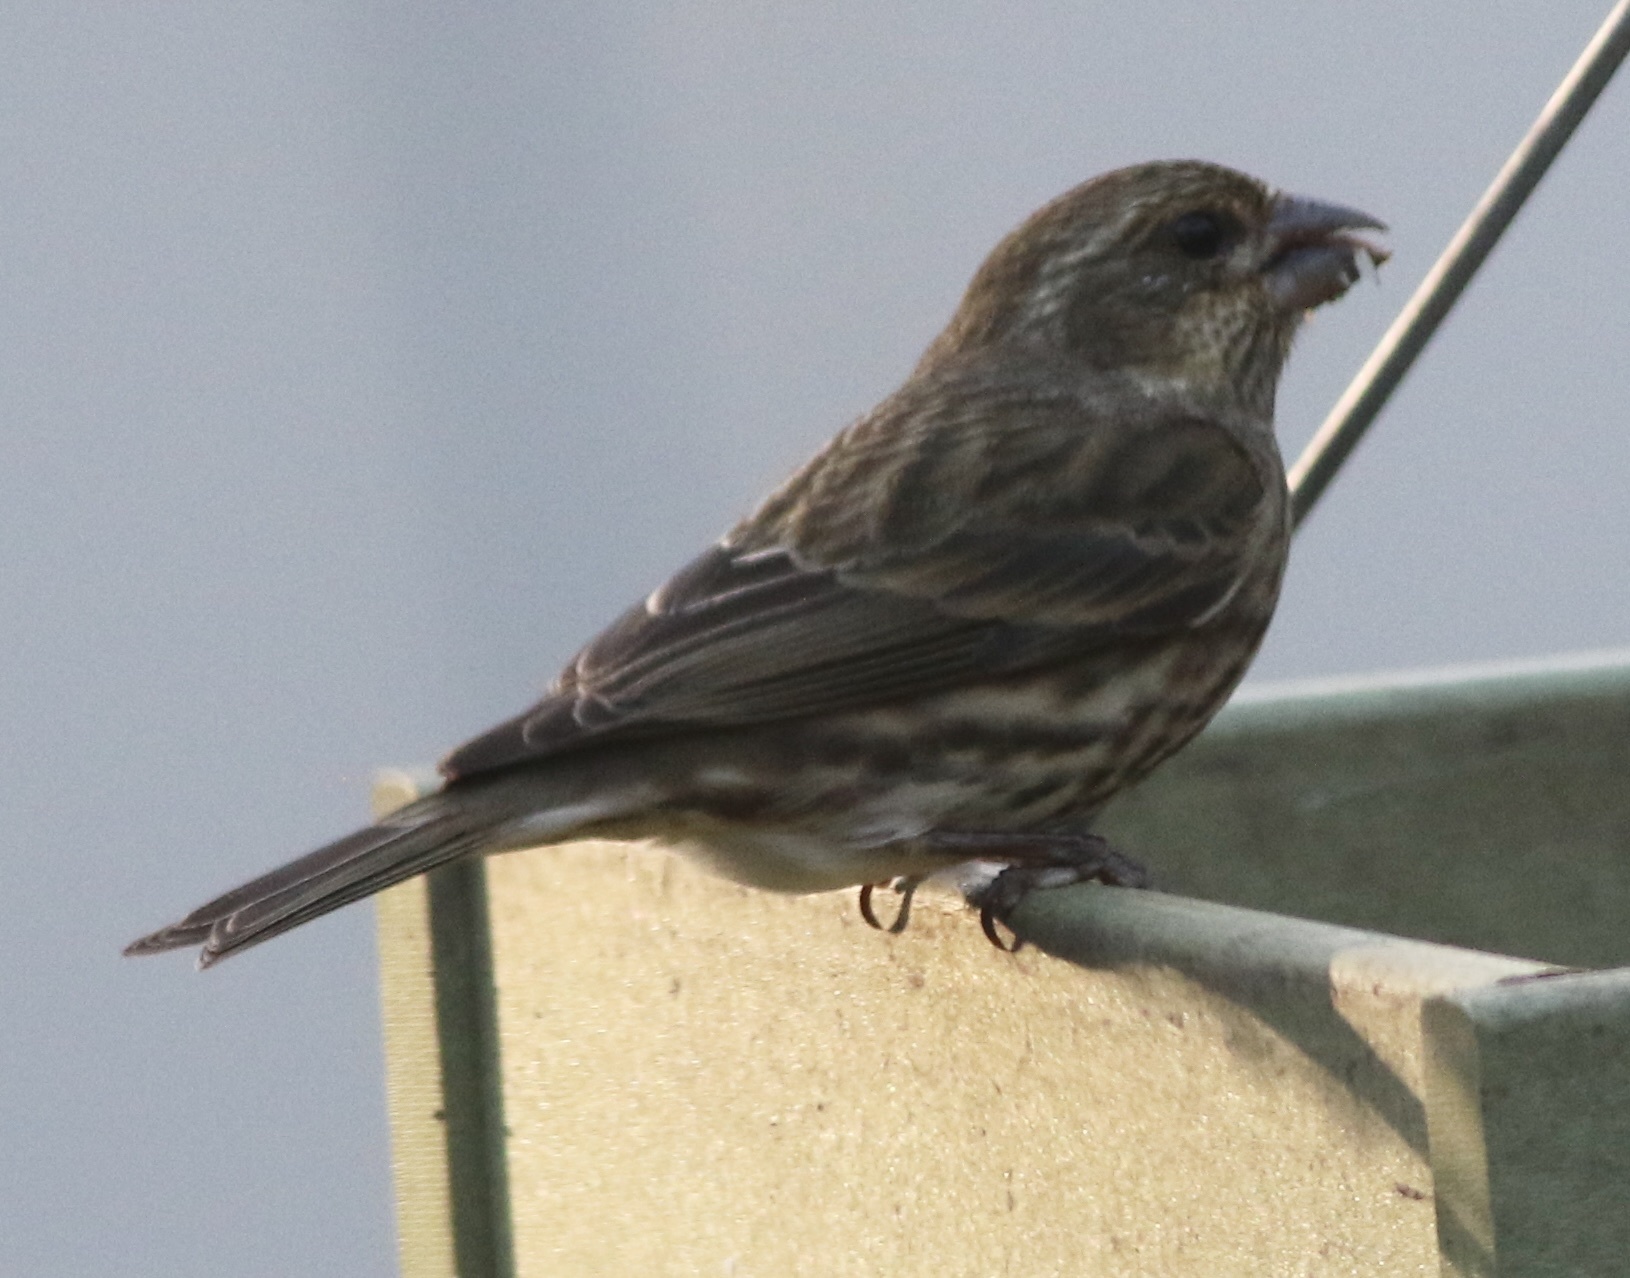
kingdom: Animalia
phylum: Chordata
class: Aves
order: Passeriformes
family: Fringillidae
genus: Haemorhous
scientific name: Haemorhous purpureus
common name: Purple finch
